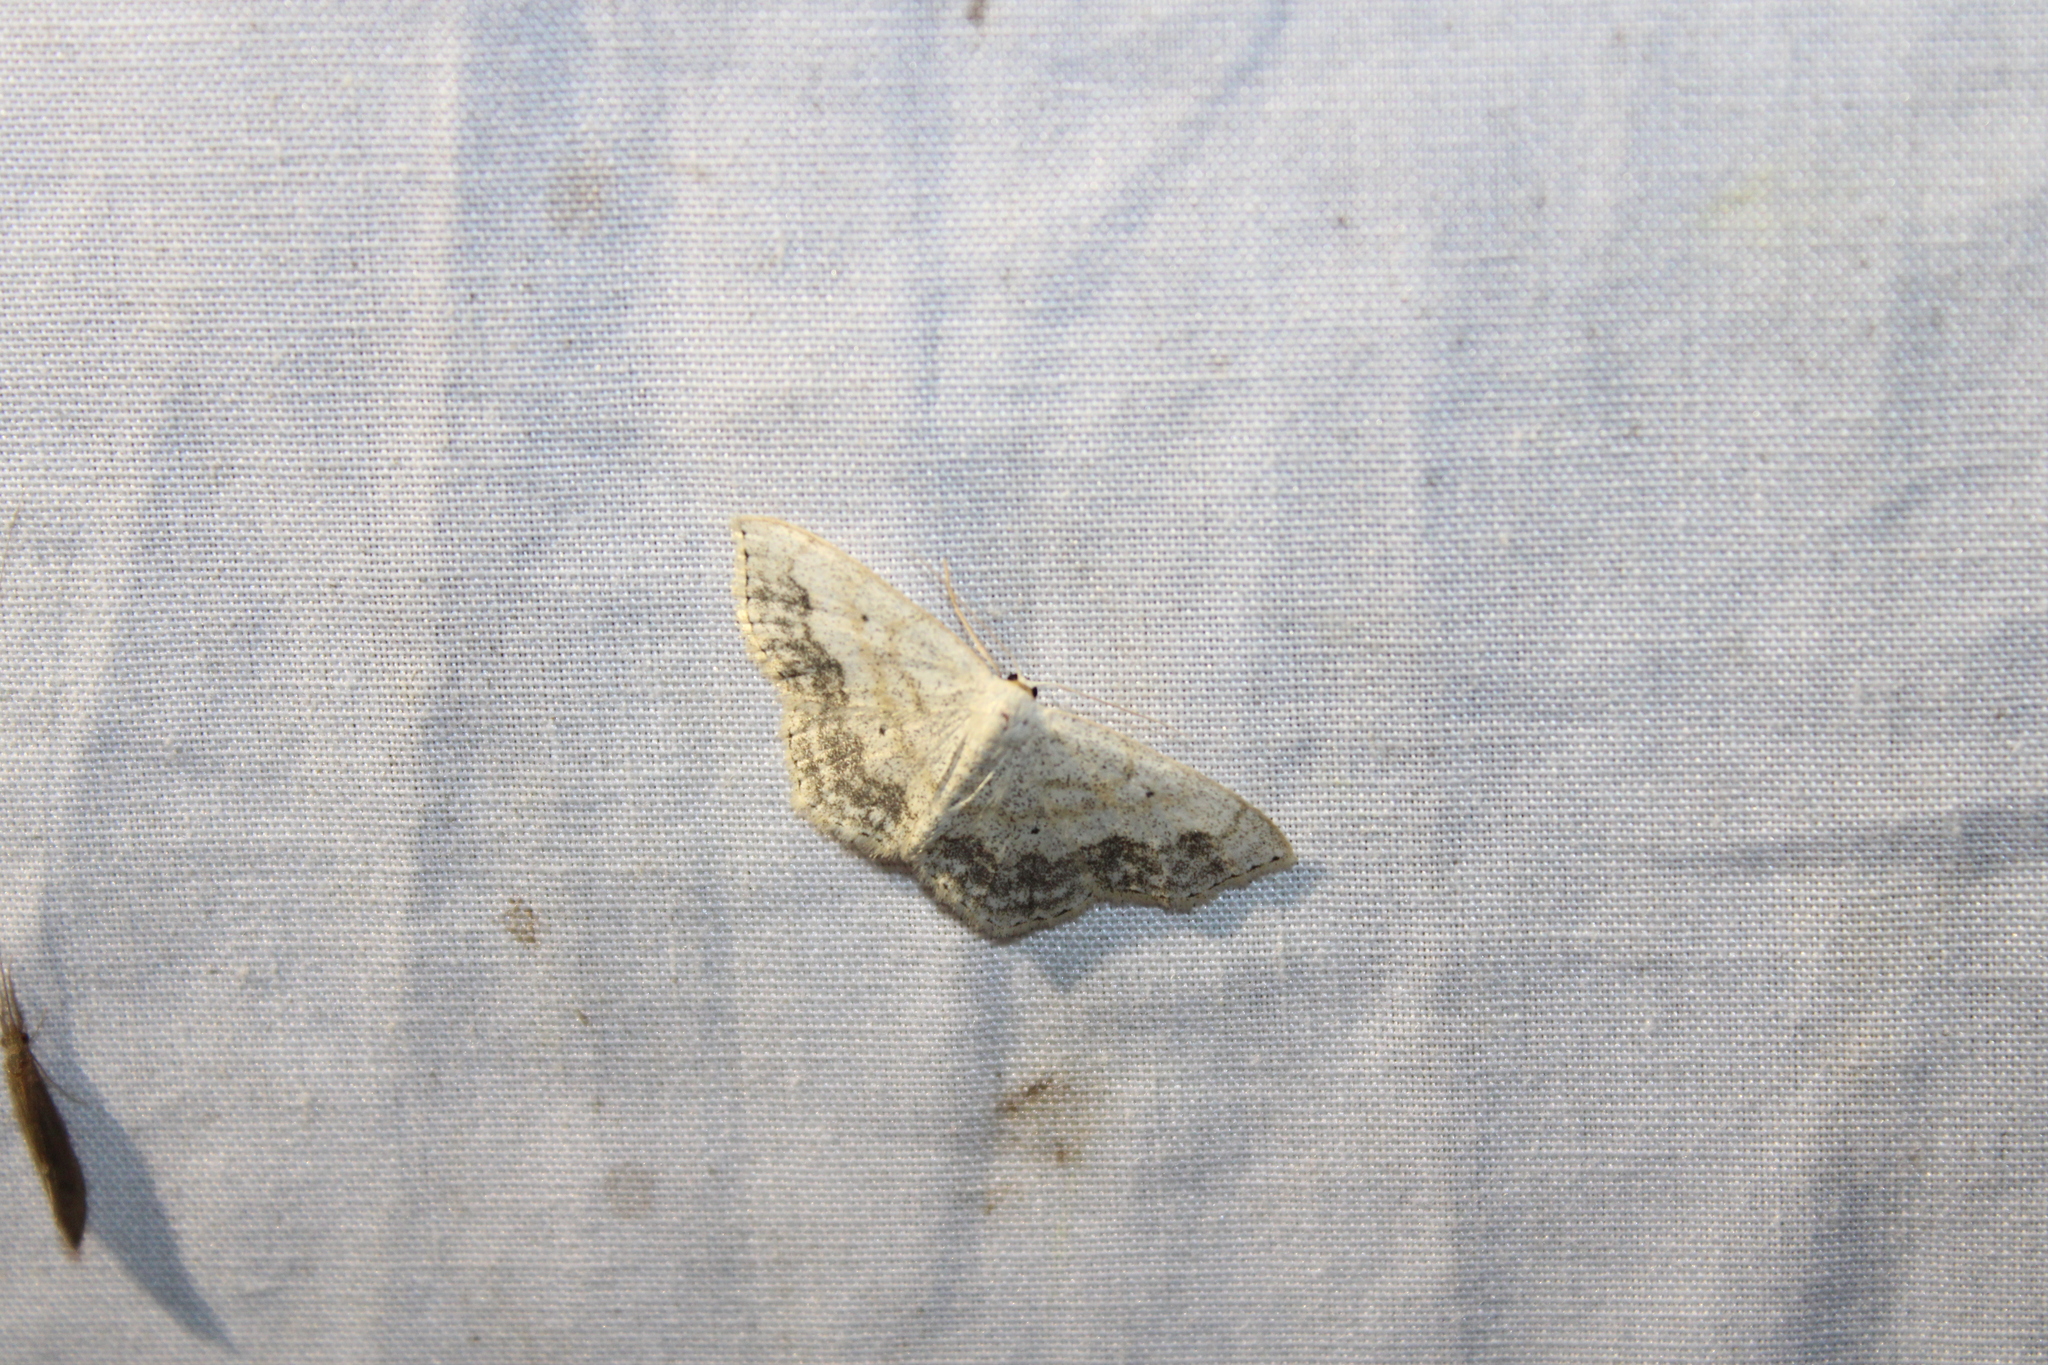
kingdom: Animalia
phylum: Arthropoda
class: Insecta
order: Lepidoptera
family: Geometridae
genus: Scopula
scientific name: Scopula limboundata
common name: Large lace border
